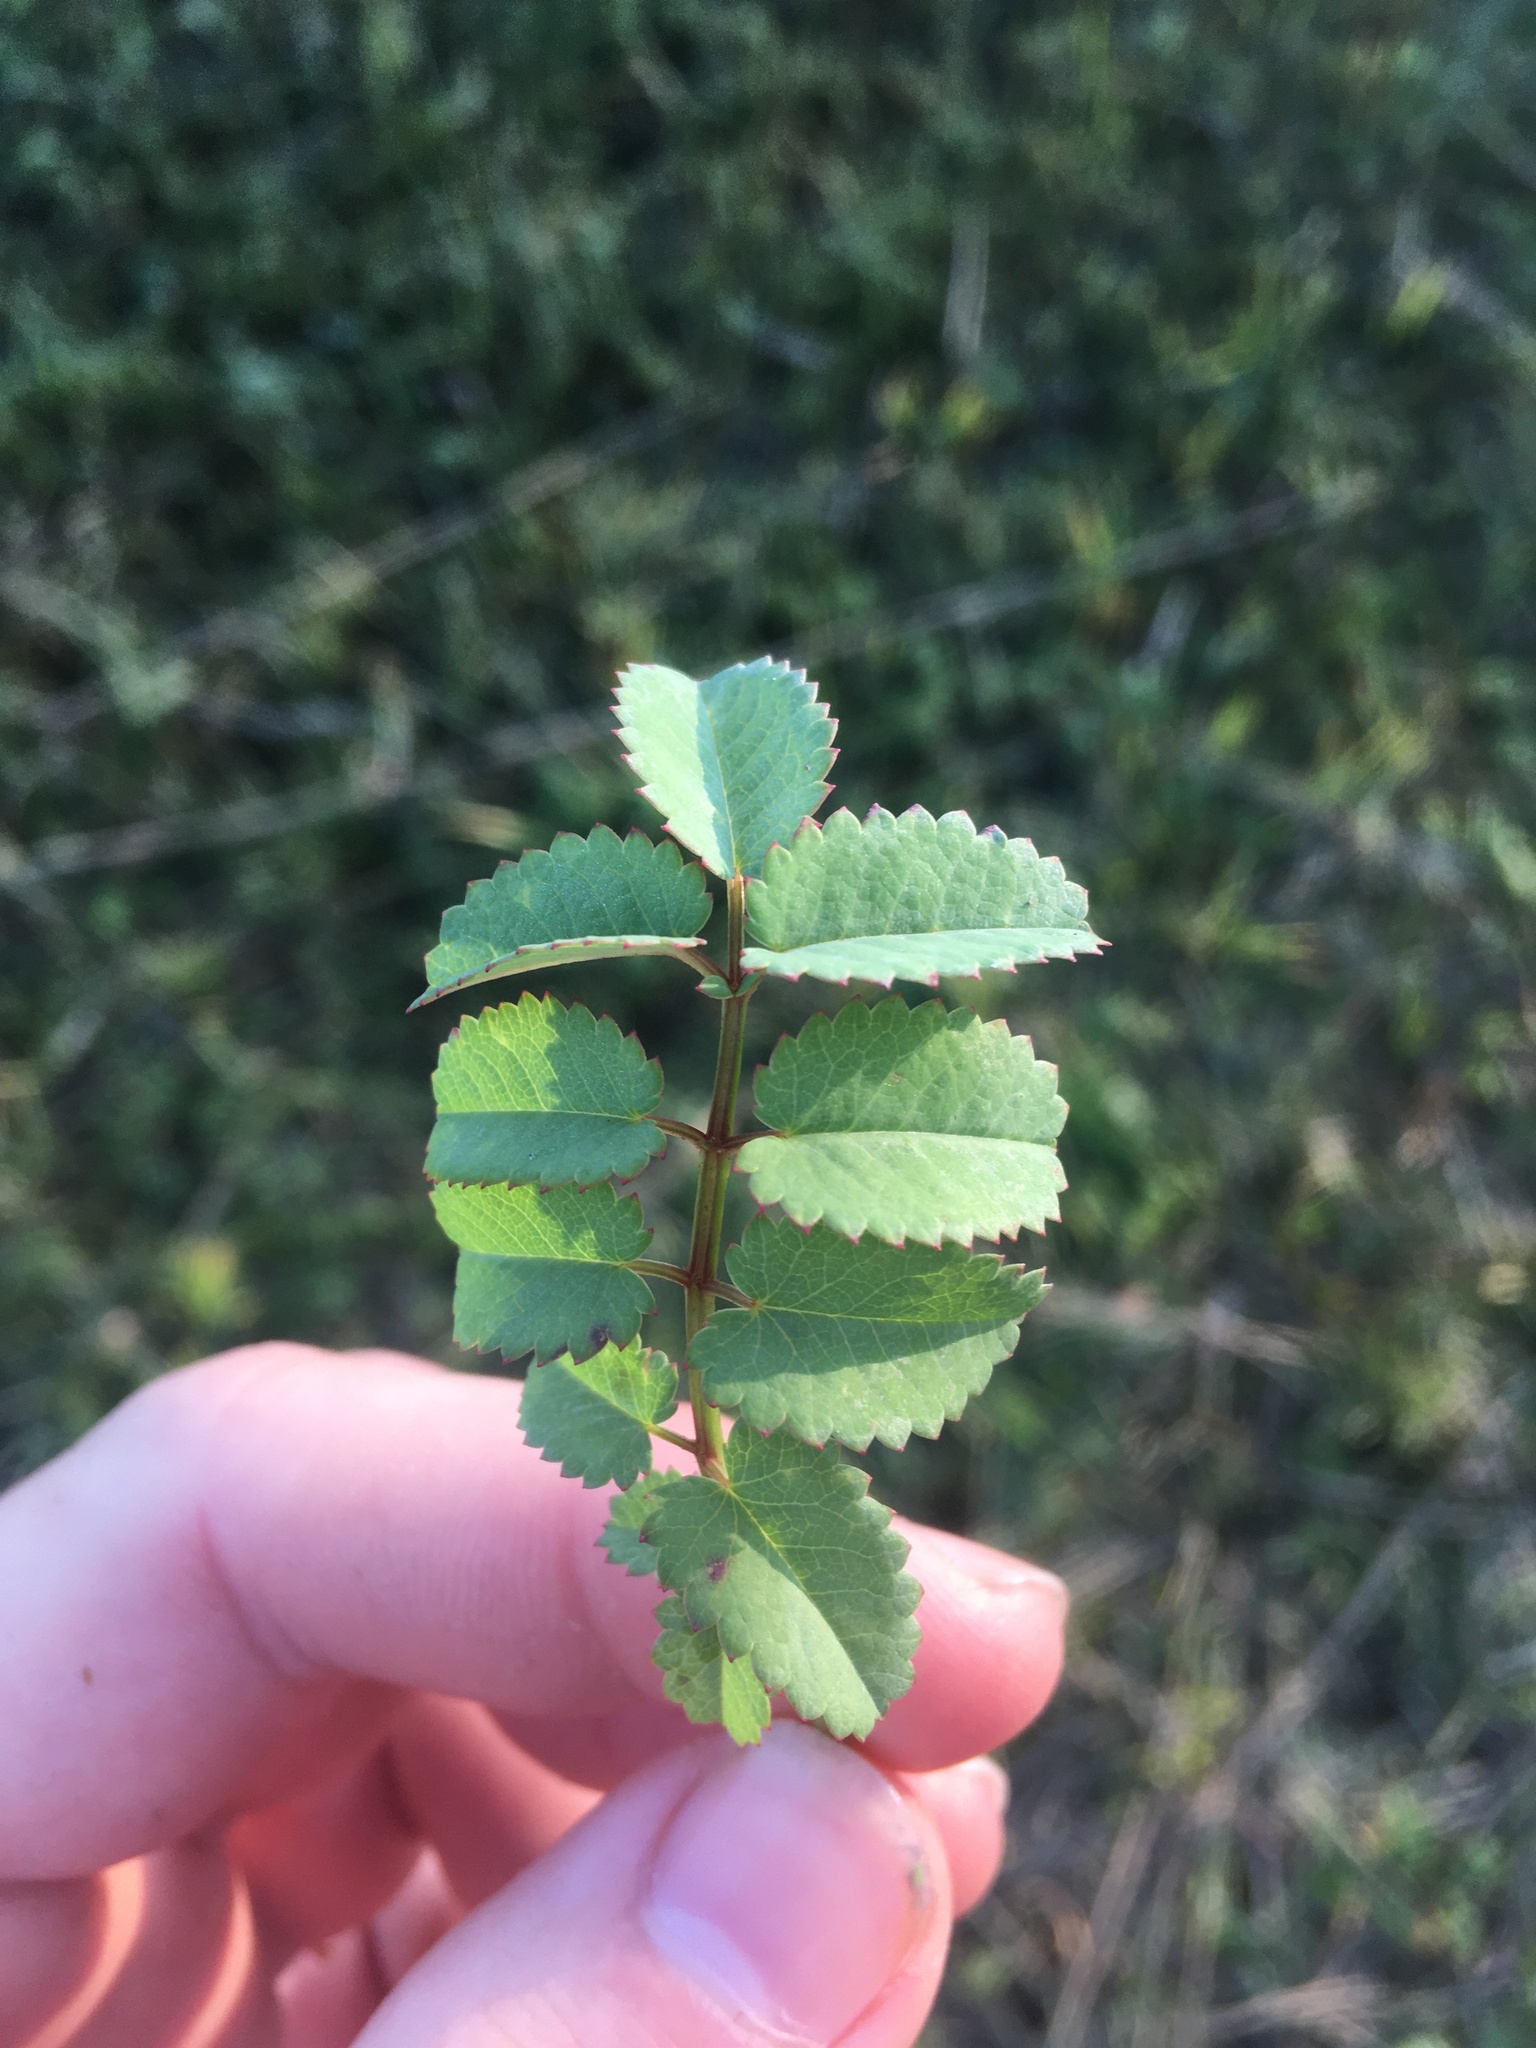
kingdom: Plantae
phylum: Tracheophyta
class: Magnoliopsida
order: Rosales
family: Rosaceae
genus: Sanguisorba
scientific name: Sanguisorba officinalis
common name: Great burnet
